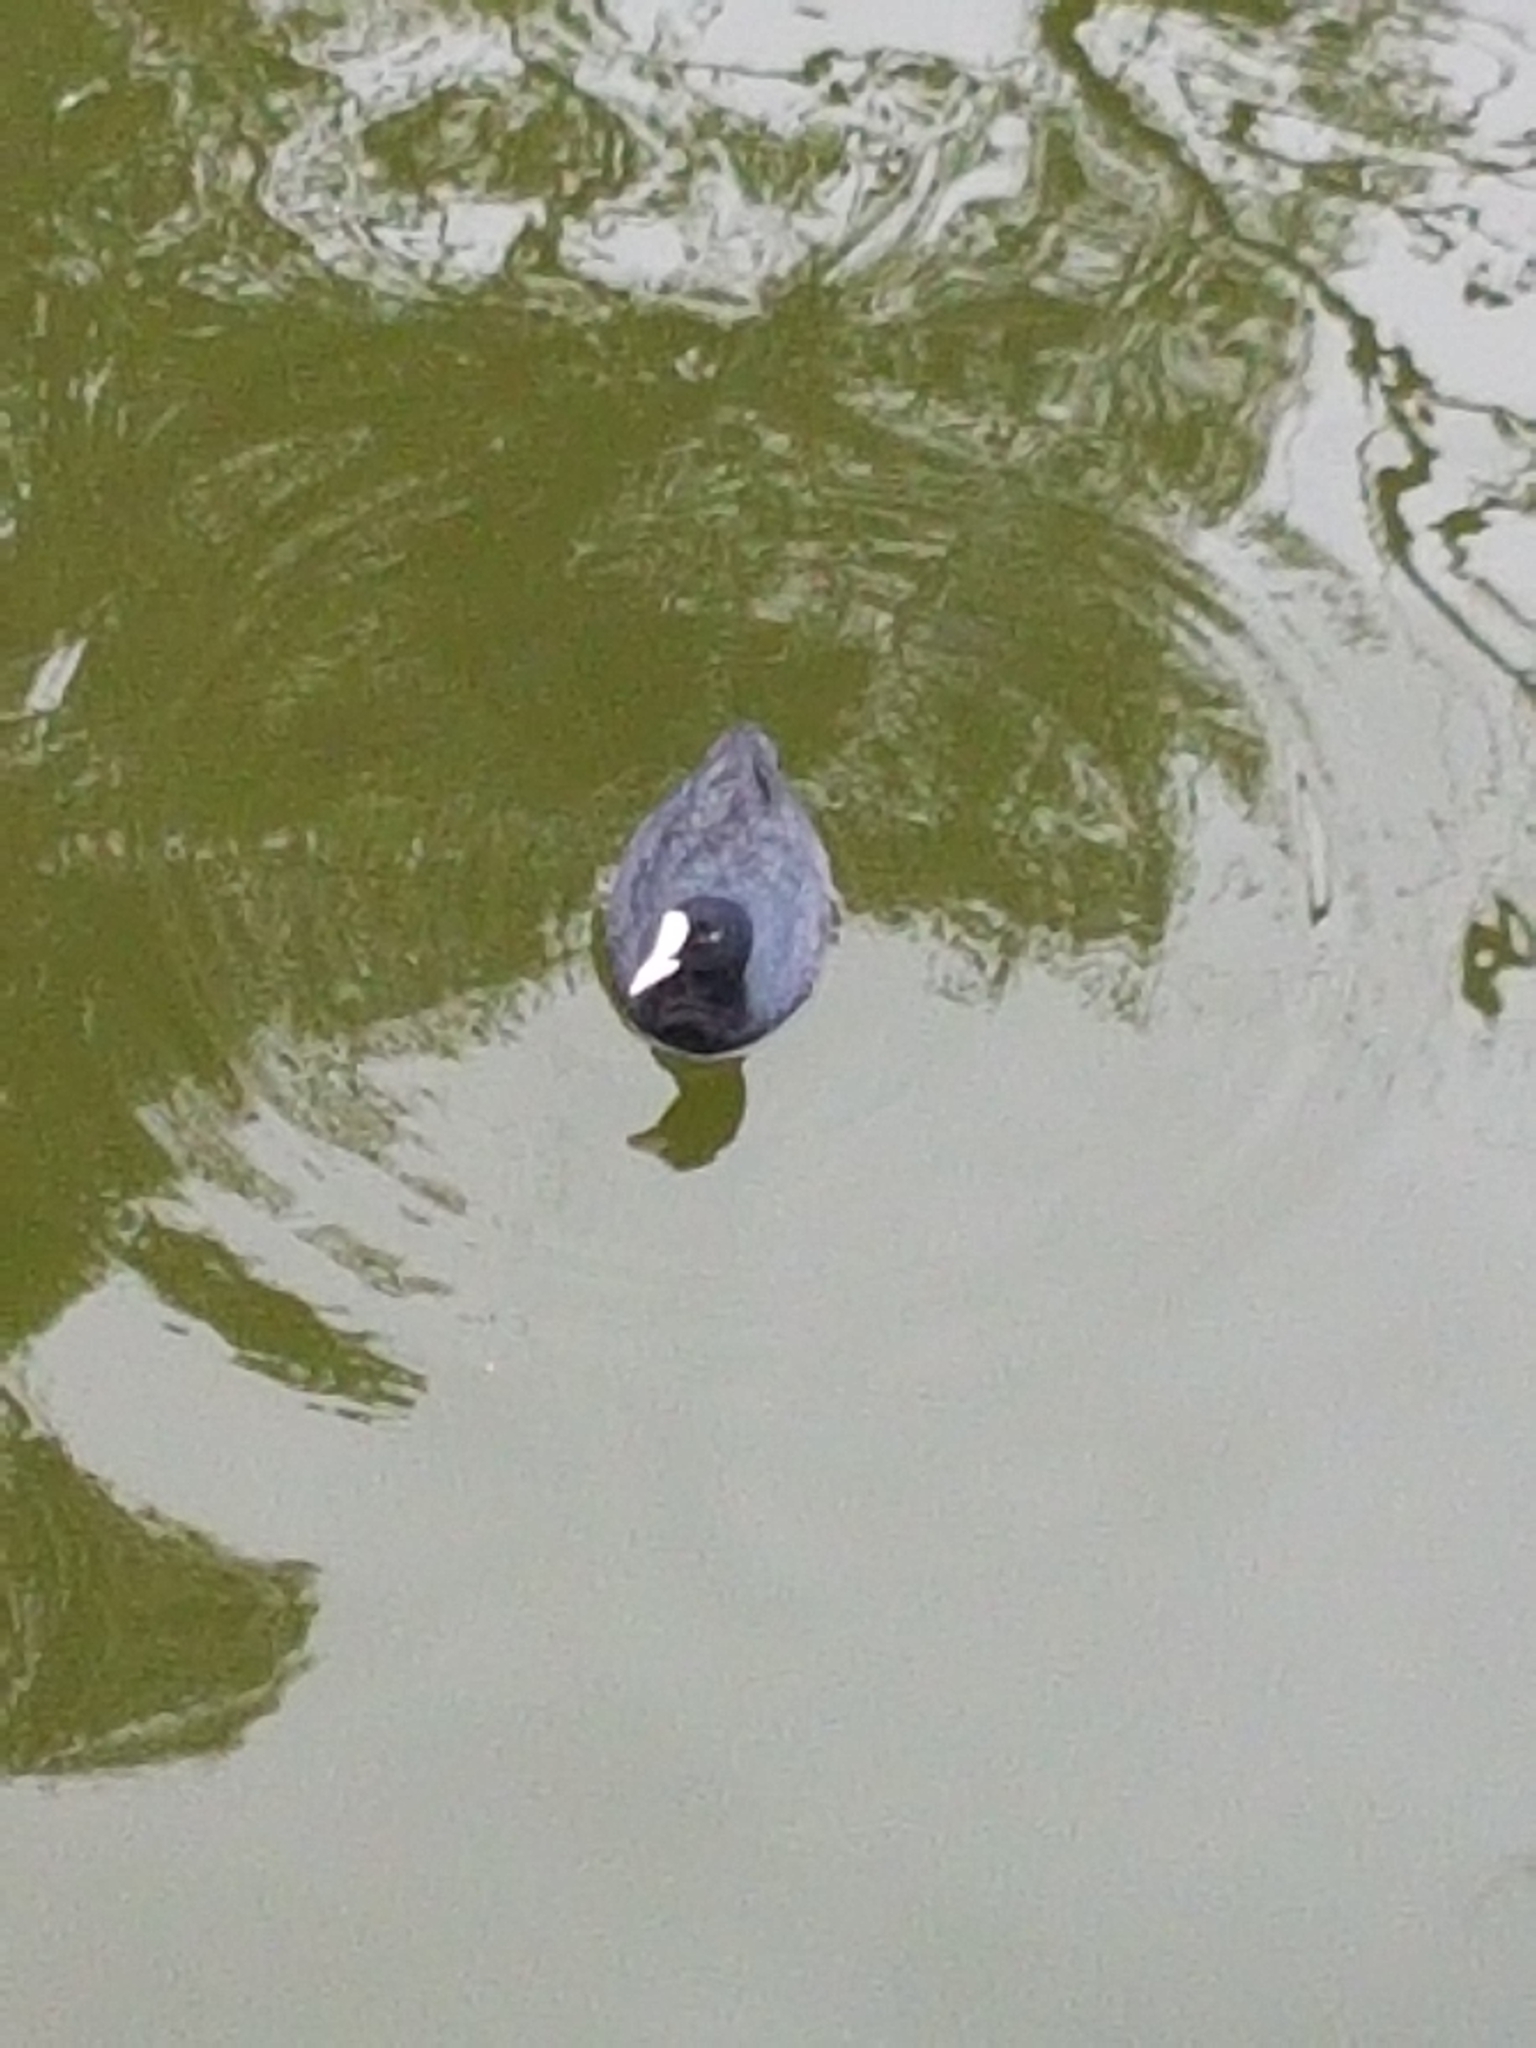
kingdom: Animalia
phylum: Chordata
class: Aves
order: Gruiformes
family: Rallidae
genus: Fulica
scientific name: Fulica atra
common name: Eurasian coot
